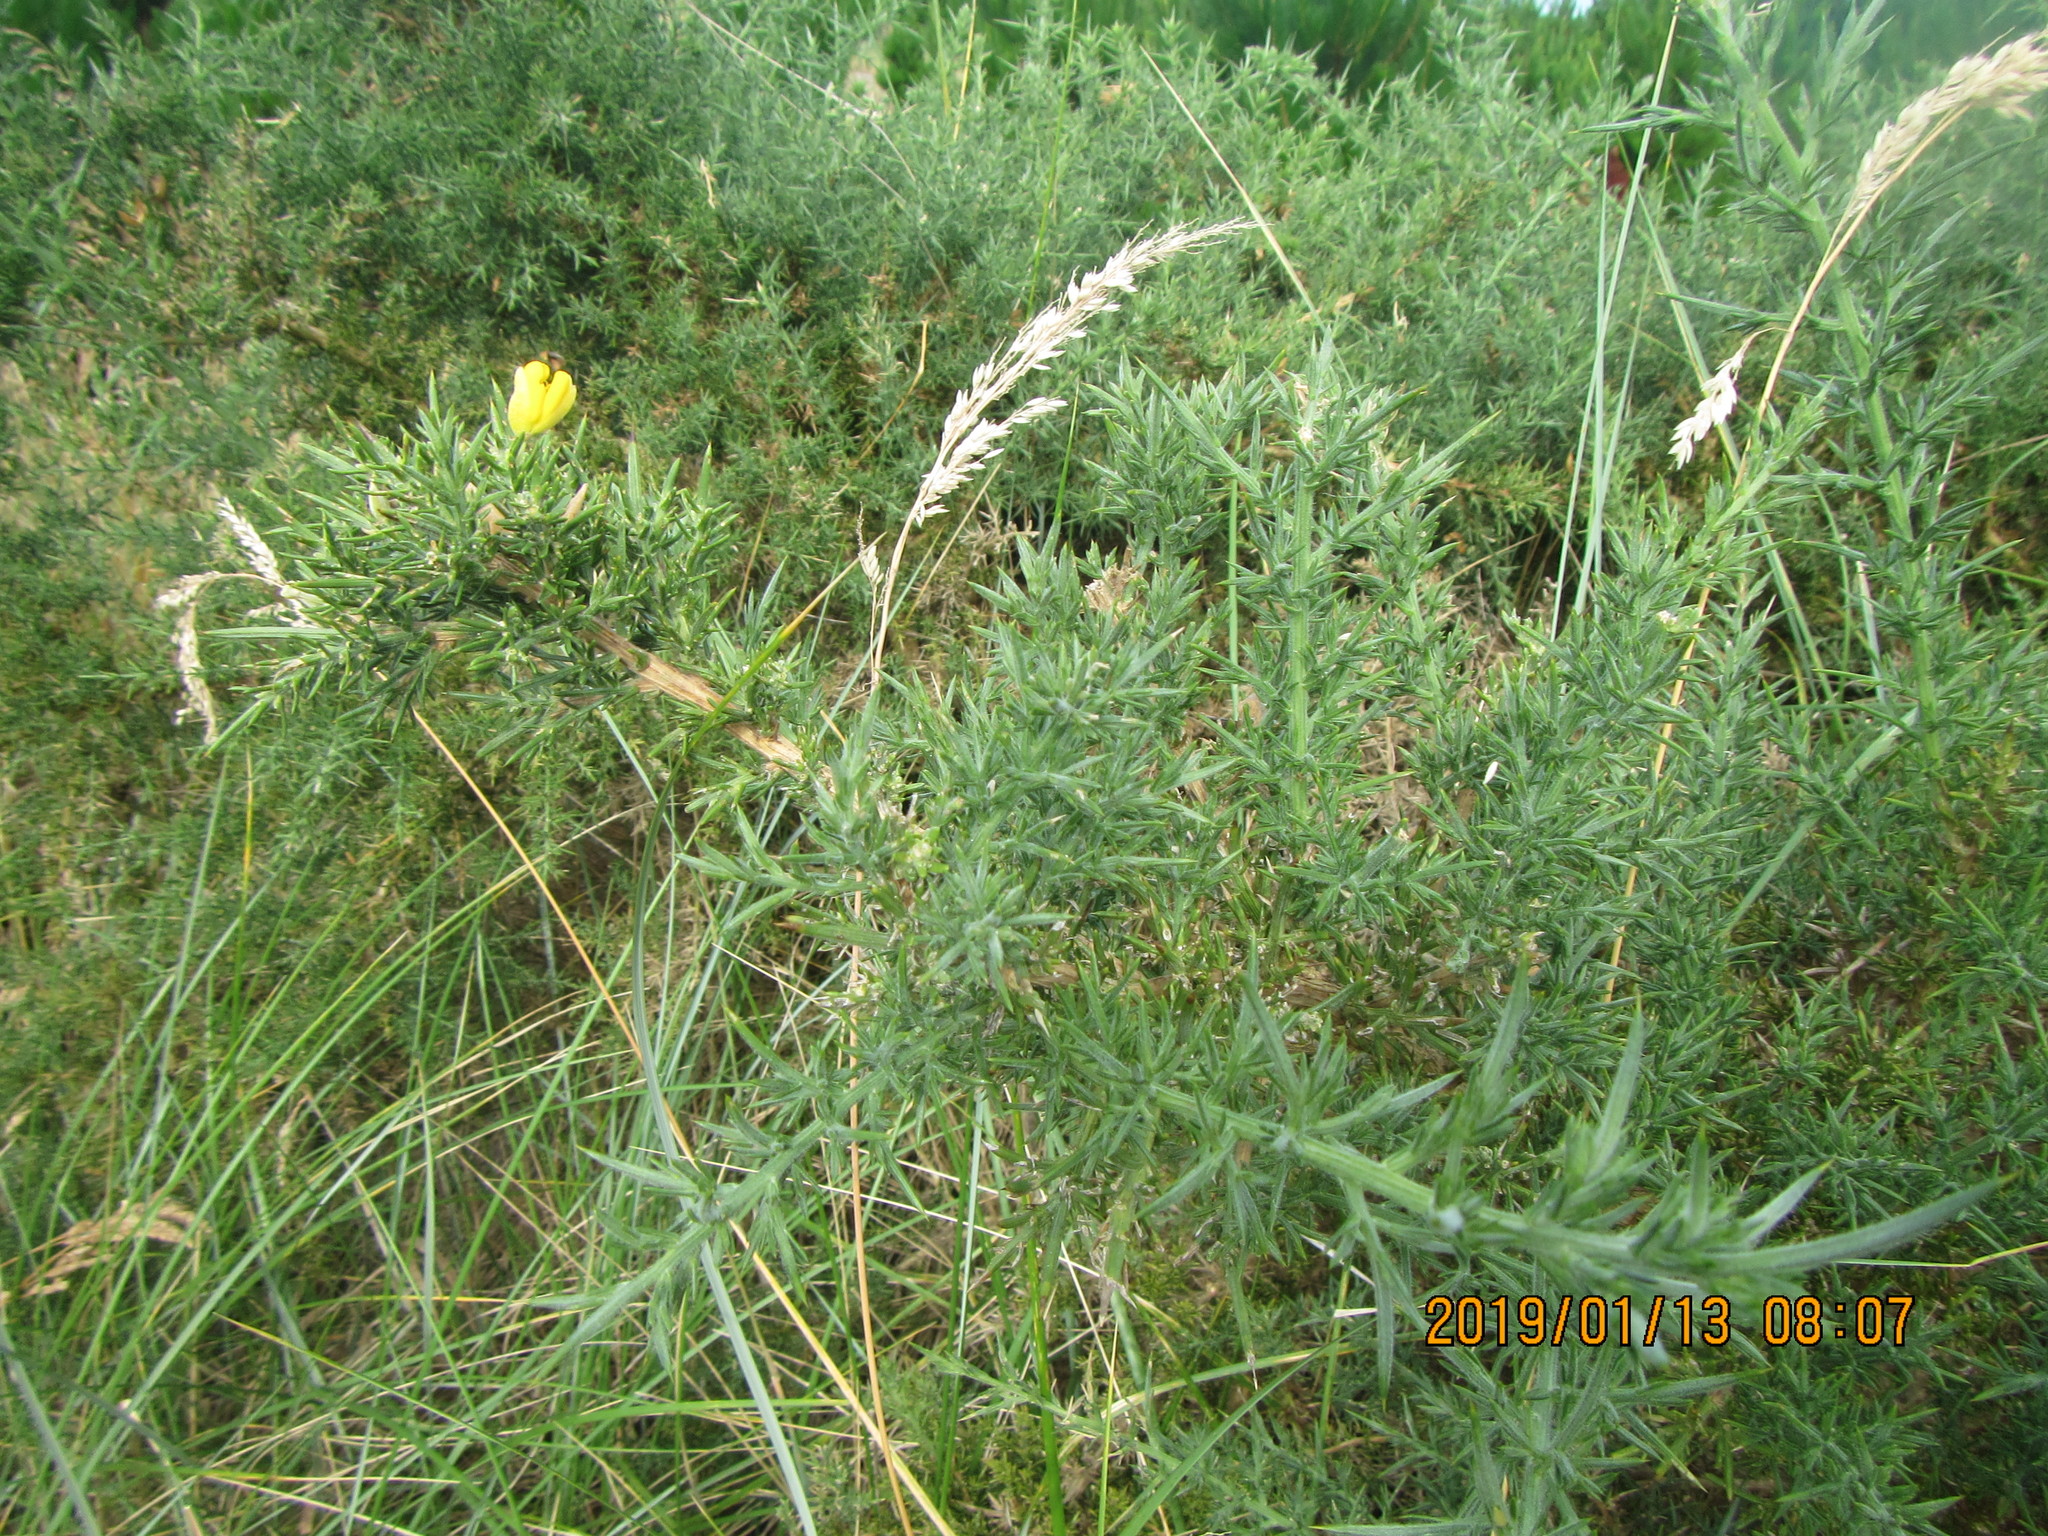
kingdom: Plantae
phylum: Tracheophyta
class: Magnoliopsida
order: Fabales
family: Fabaceae
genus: Ulex
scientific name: Ulex europaeus
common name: Common gorse
